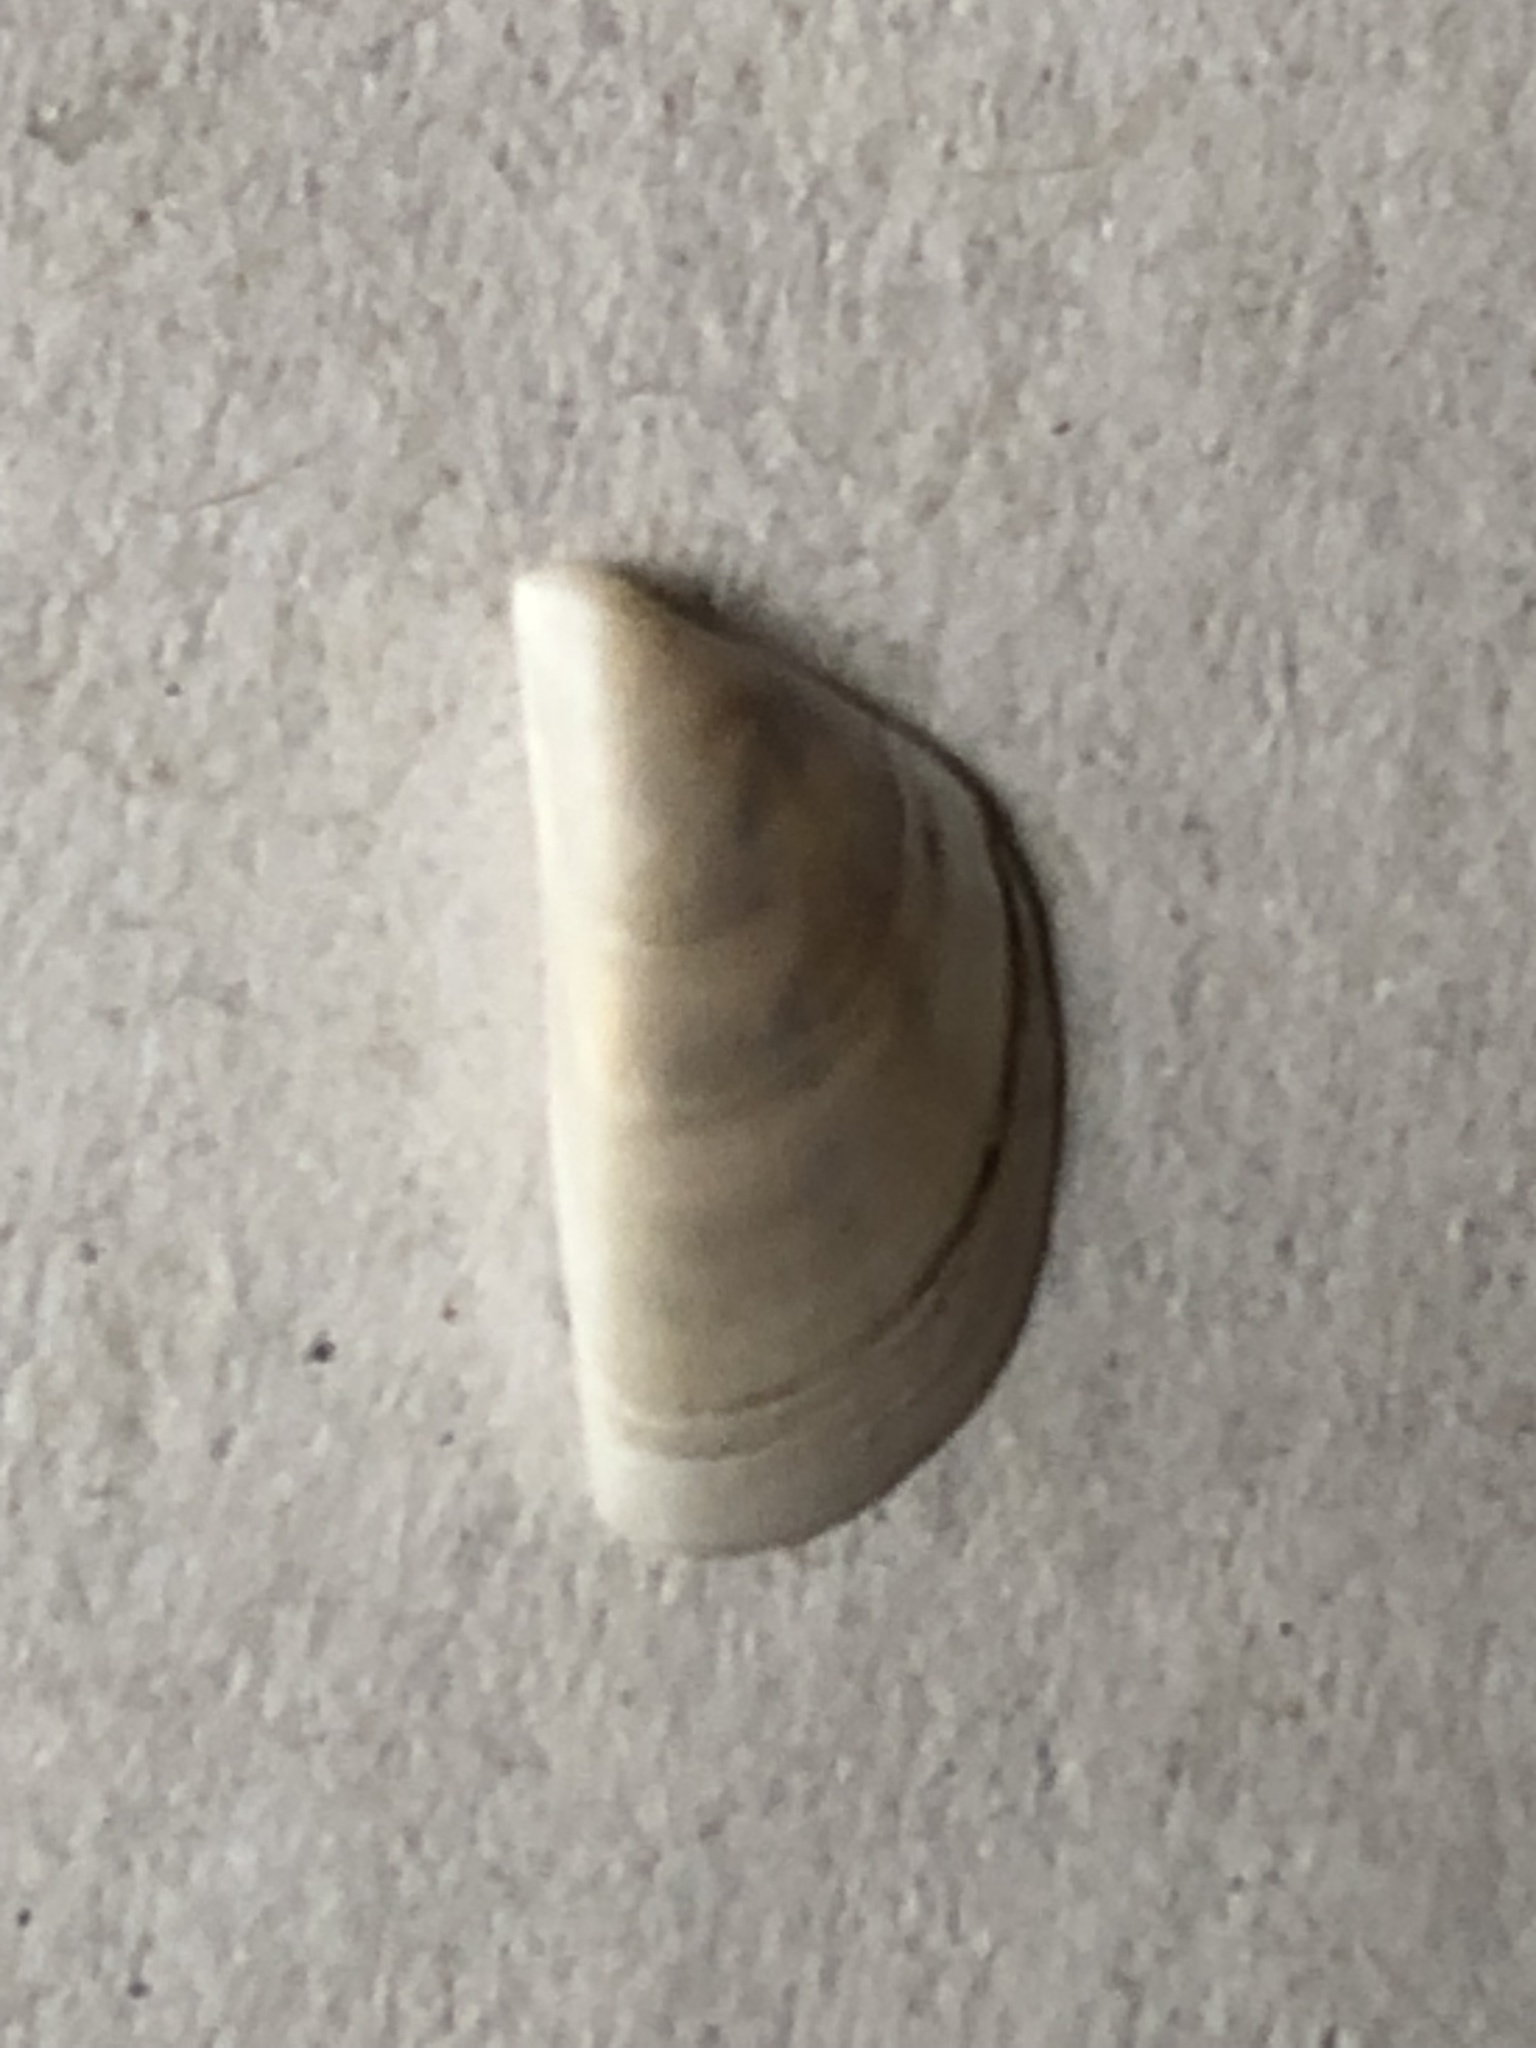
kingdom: Animalia
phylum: Mollusca
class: Bivalvia
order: Myida
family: Dreissenidae
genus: Dreissena
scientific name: Dreissena polymorpha
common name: Zebra mussel
